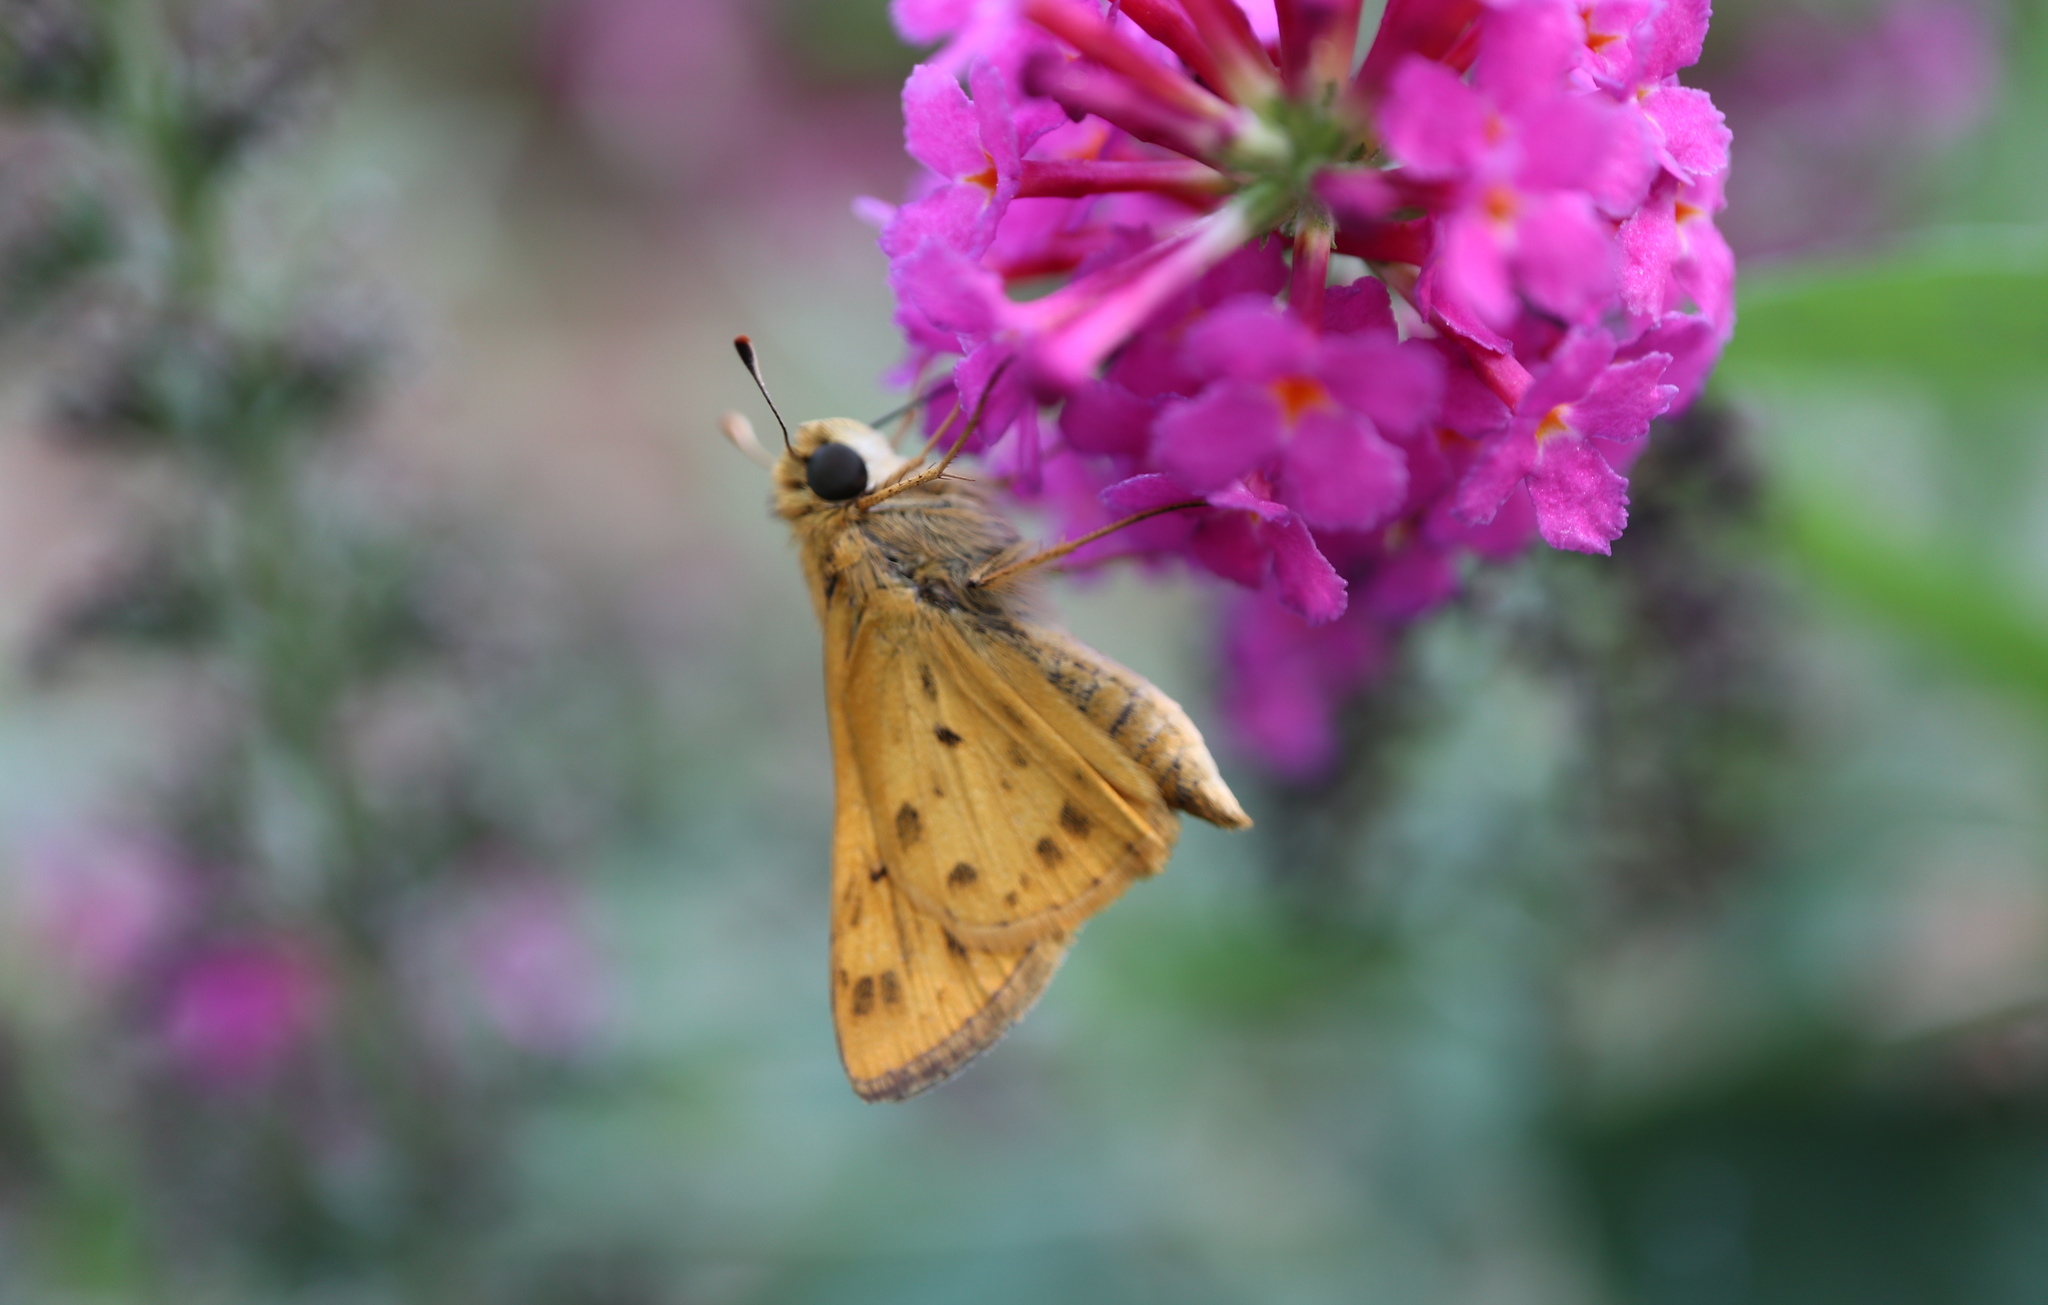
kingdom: Animalia
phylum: Arthropoda
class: Insecta
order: Lepidoptera
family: Hesperiidae
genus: Hylephila
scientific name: Hylephila phyleus
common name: Fiery skipper
